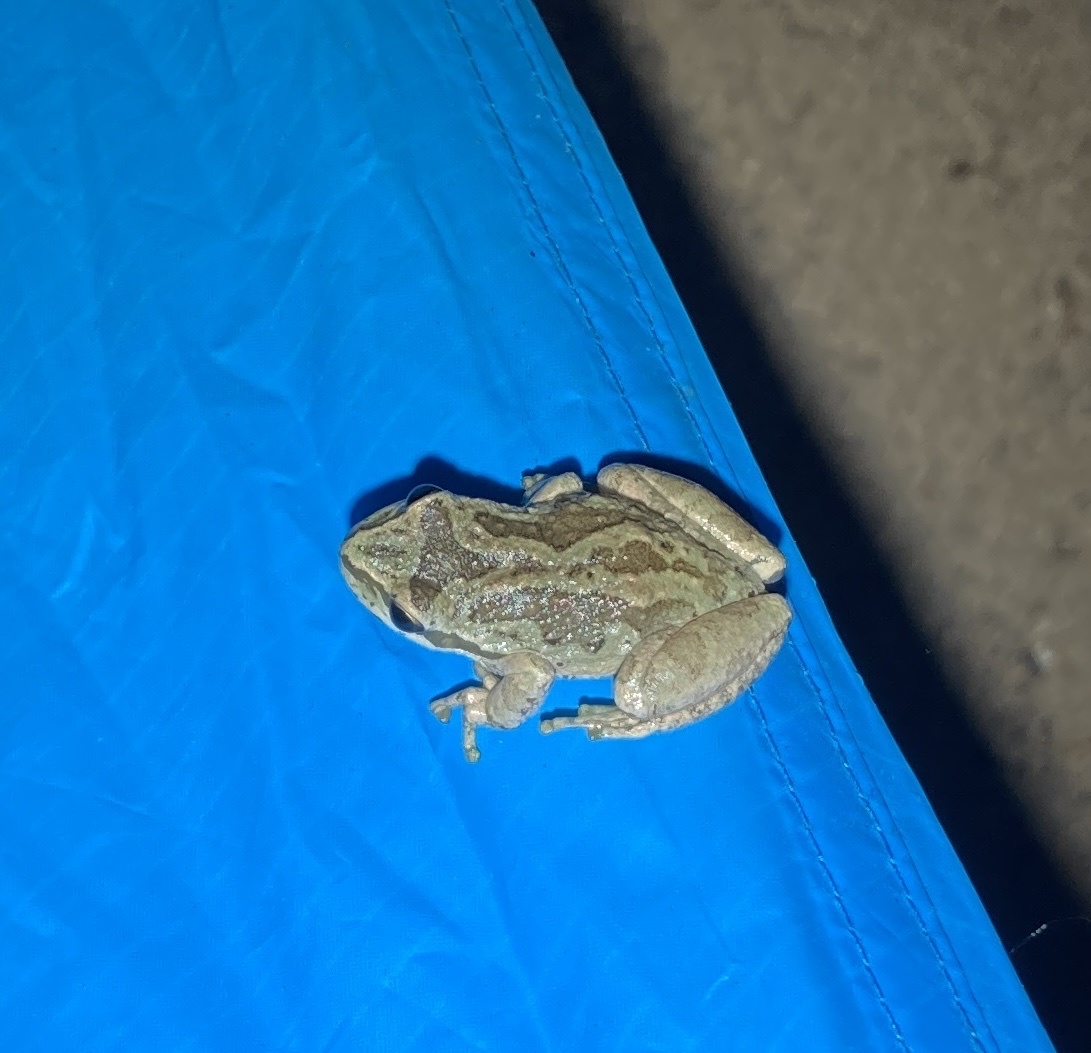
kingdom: Animalia
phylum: Chordata
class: Amphibia
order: Anura
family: Hylidae
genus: Pseudacris
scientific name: Pseudacris regilla
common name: Pacific chorus frog
